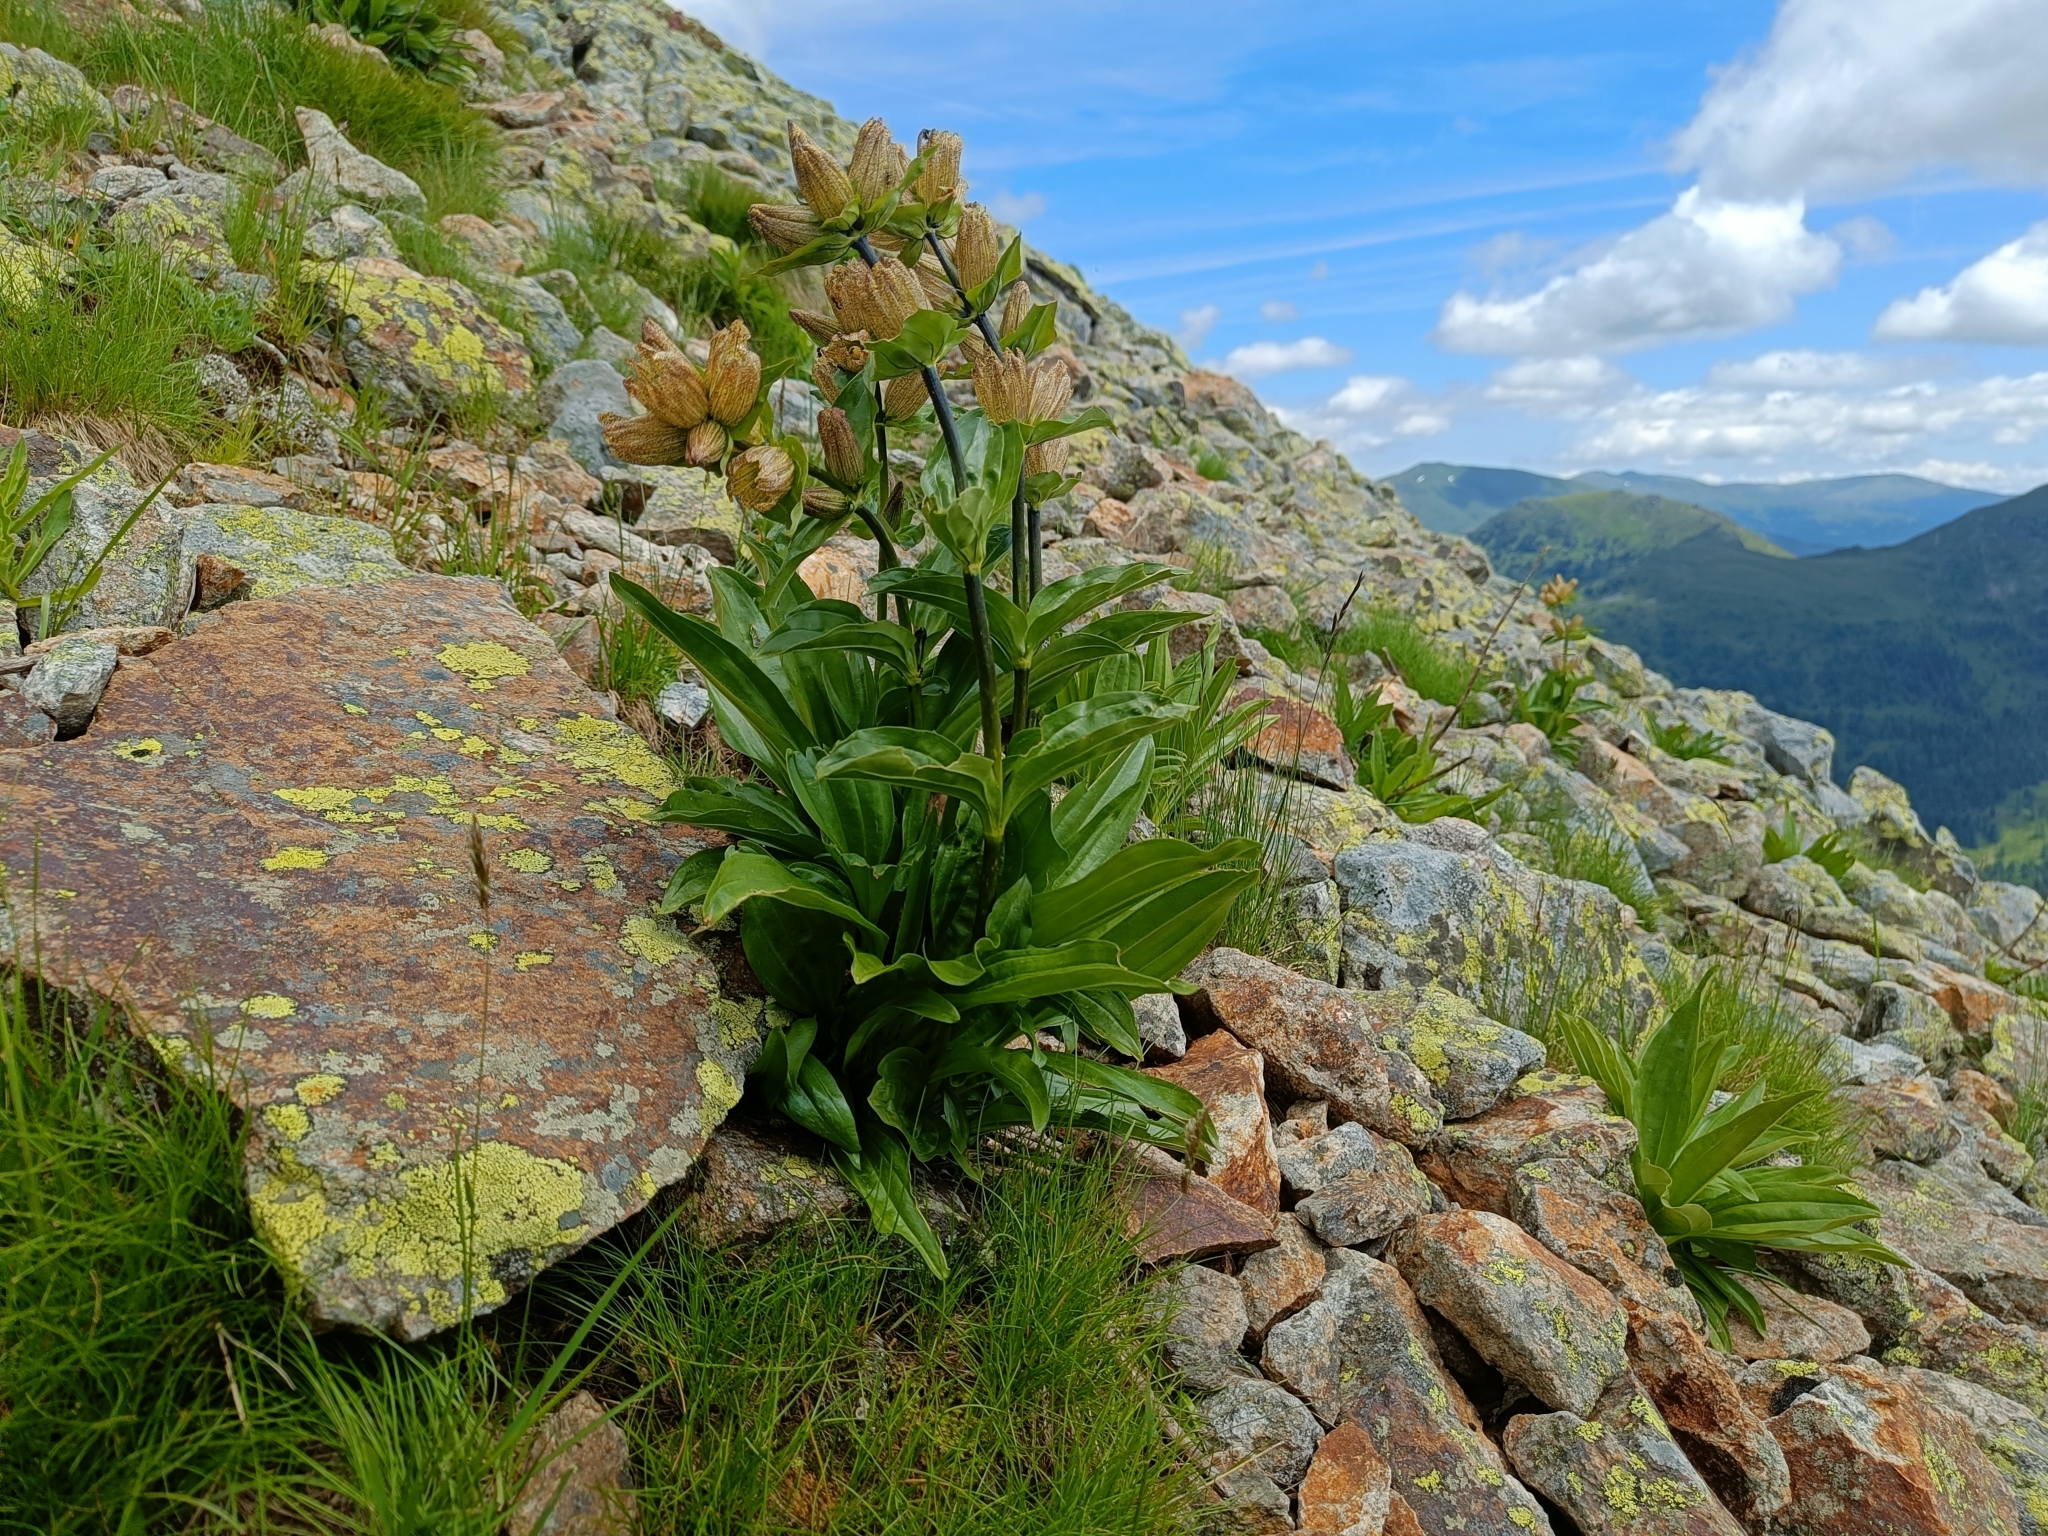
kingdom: Plantae
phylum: Tracheophyta
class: Magnoliopsida
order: Gentianales
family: Gentianaceae
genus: Gentiana
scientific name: Gentiana punctata
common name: Spotted gentian
